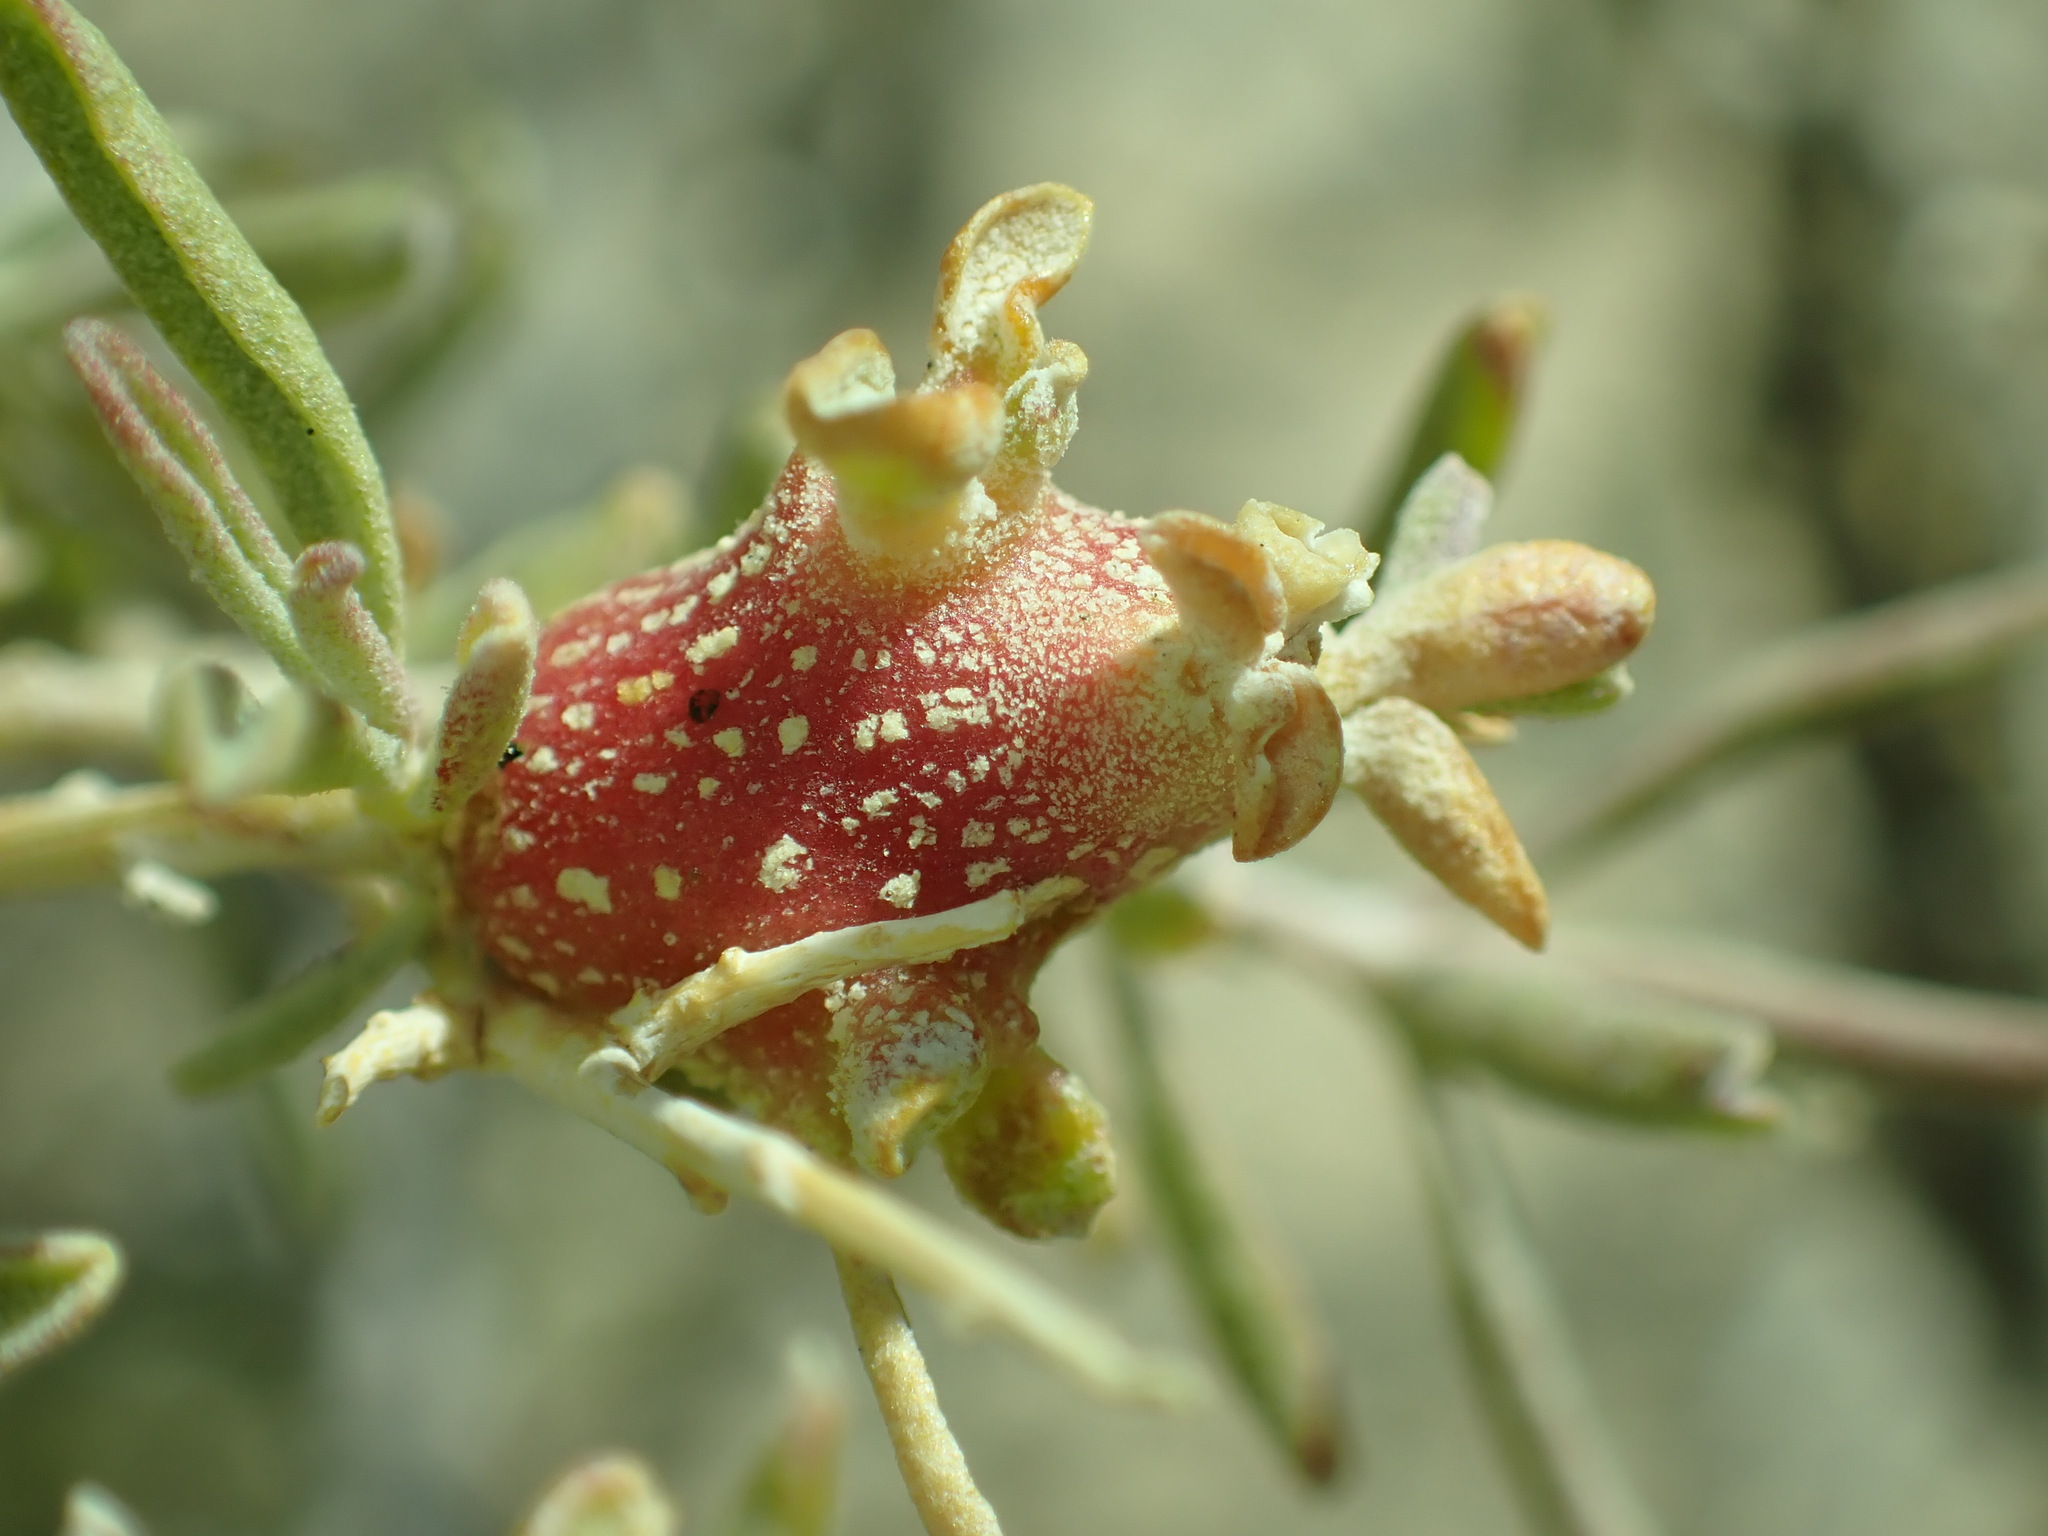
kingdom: Animalia
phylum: Arthropoda
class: Insecta
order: Diptera
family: Cecidomyiidae
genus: Asphondylia
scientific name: Asphondylia atriplicis
